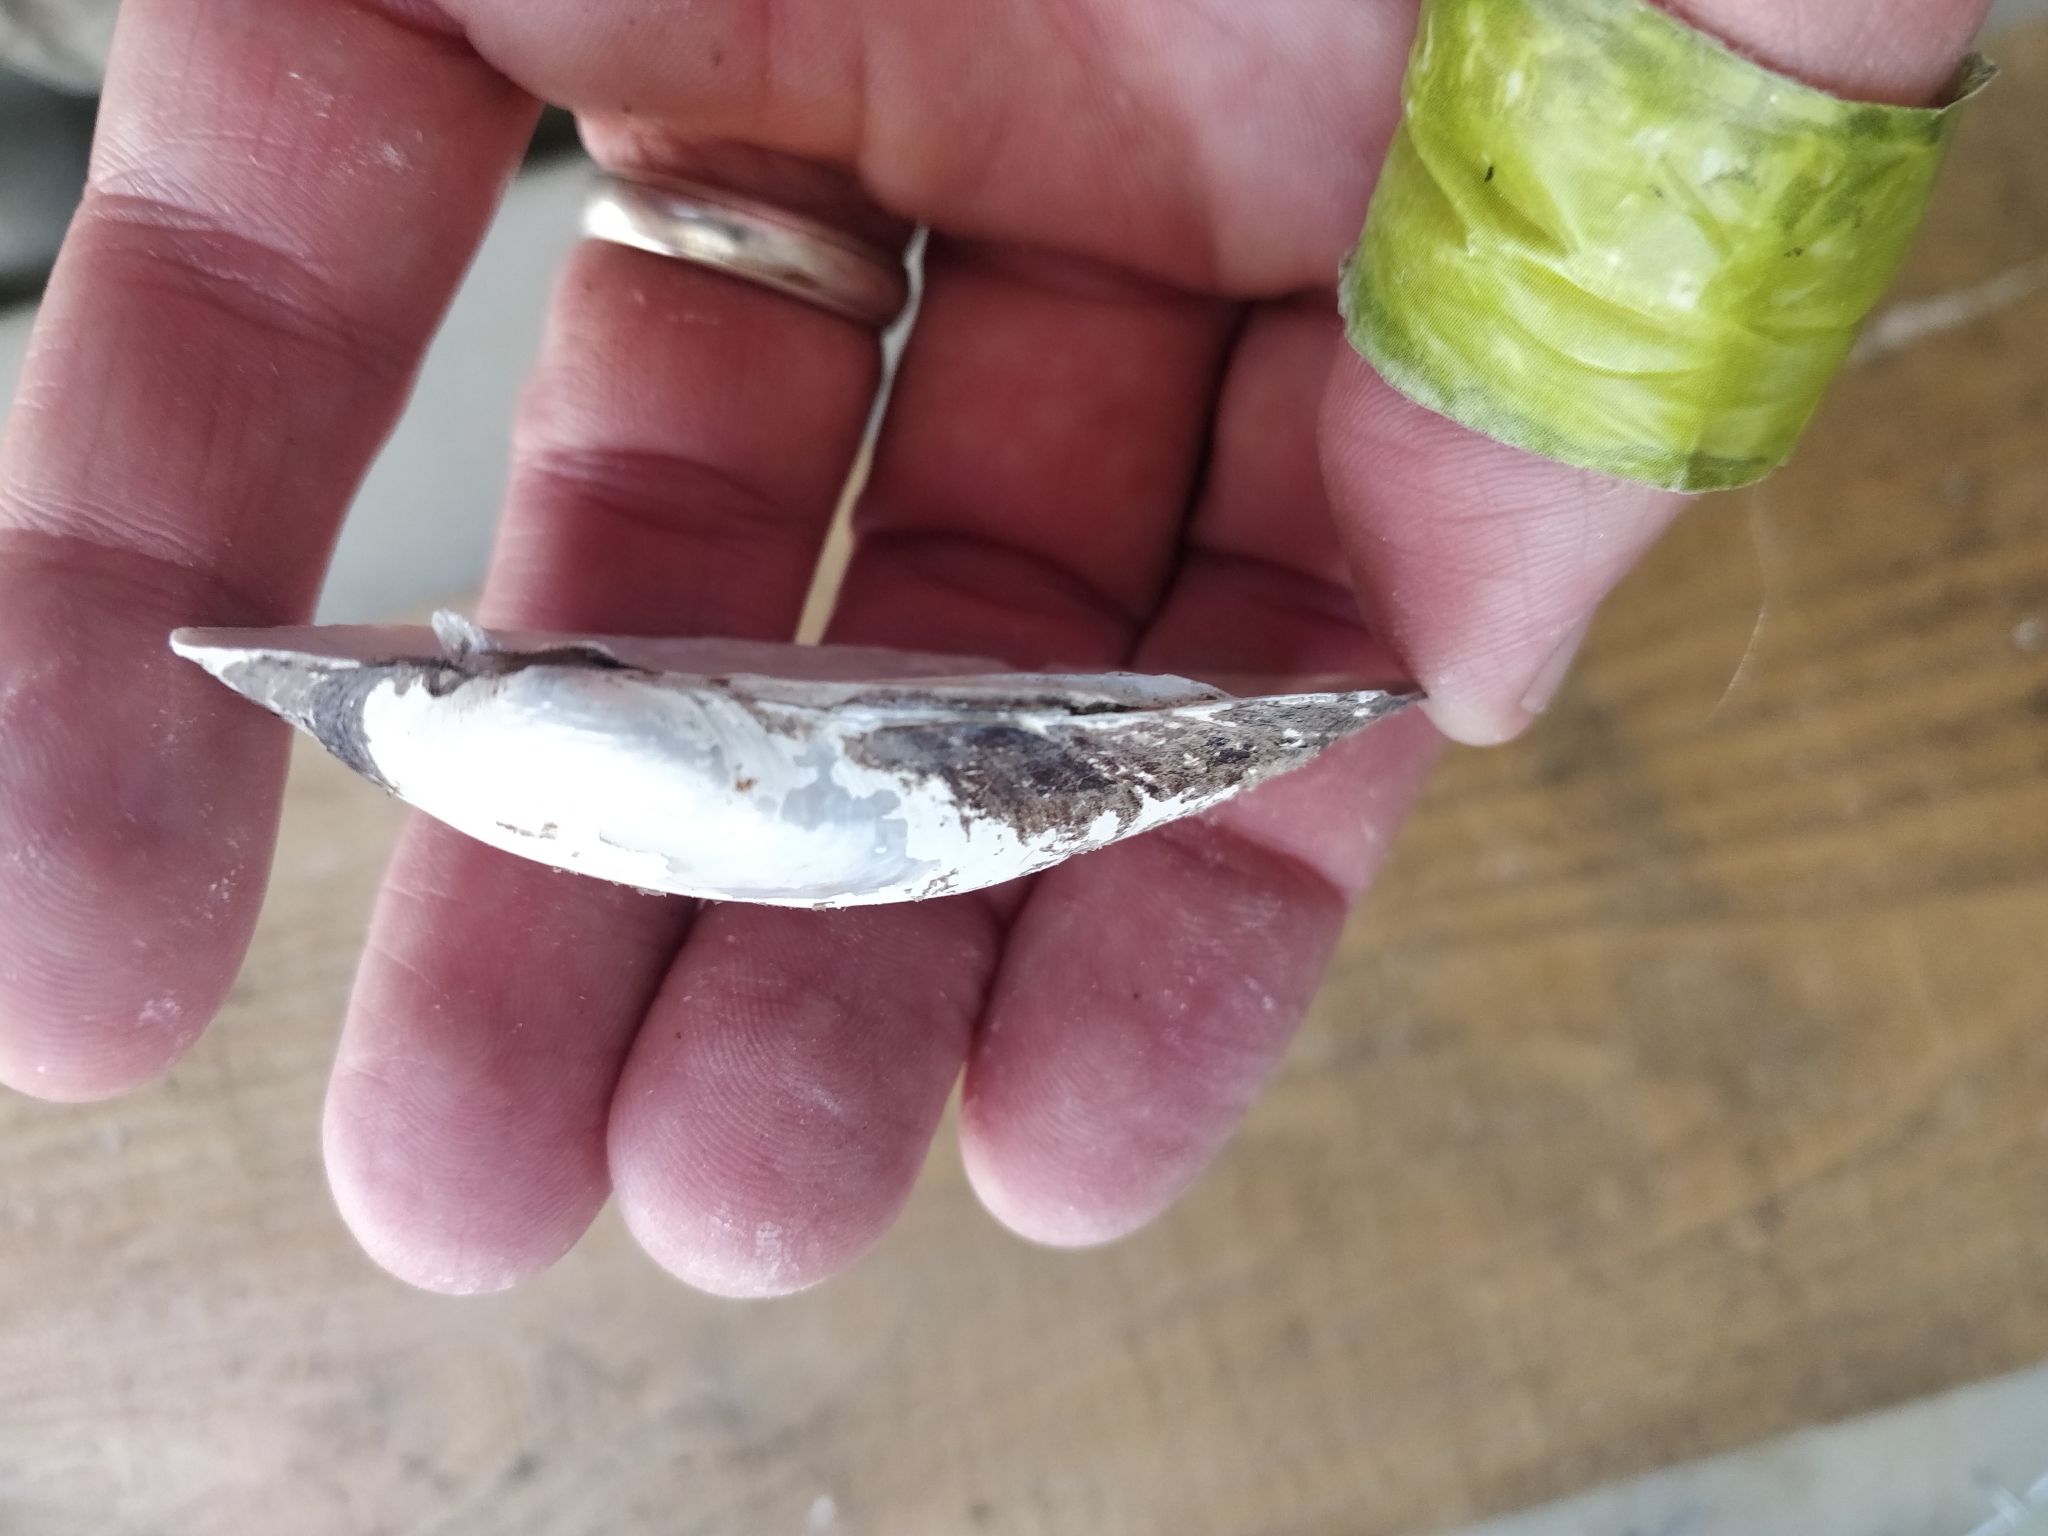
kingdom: Animalia
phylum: Mollusca
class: Bivalvia
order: Unionida
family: Unionidae
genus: Lampsilis
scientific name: Lampsilis siliquoidea
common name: Fatmucket
